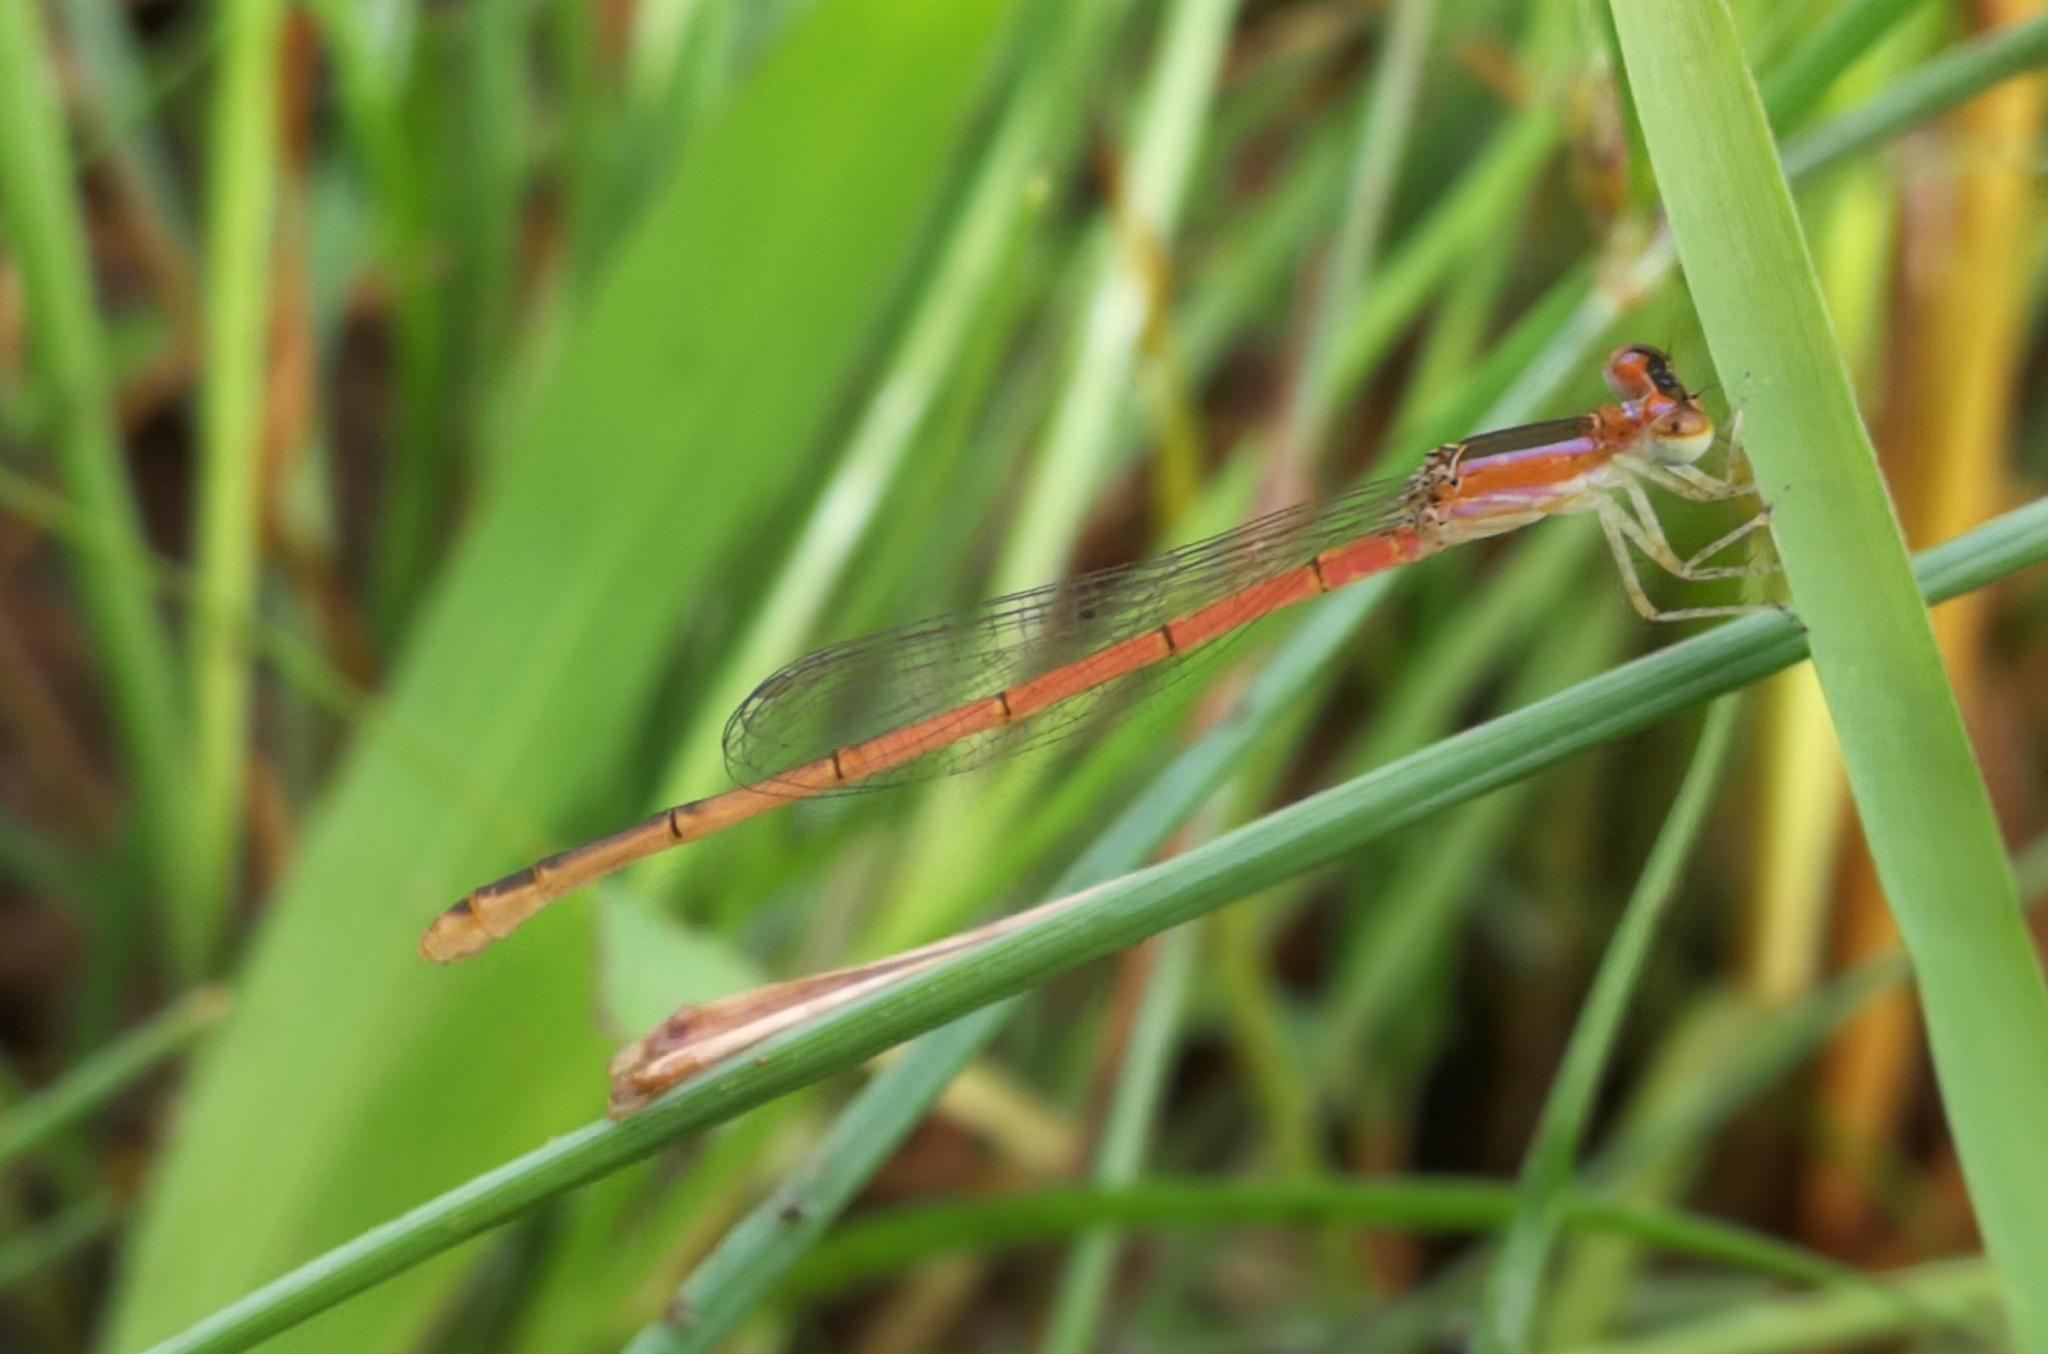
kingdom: Animalia
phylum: Arthropoda
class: Insecta
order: Odonata
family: Coenagrionidae
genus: Agriocnemis
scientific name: Agriocnemis pygmaea
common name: Pygmy wisp
